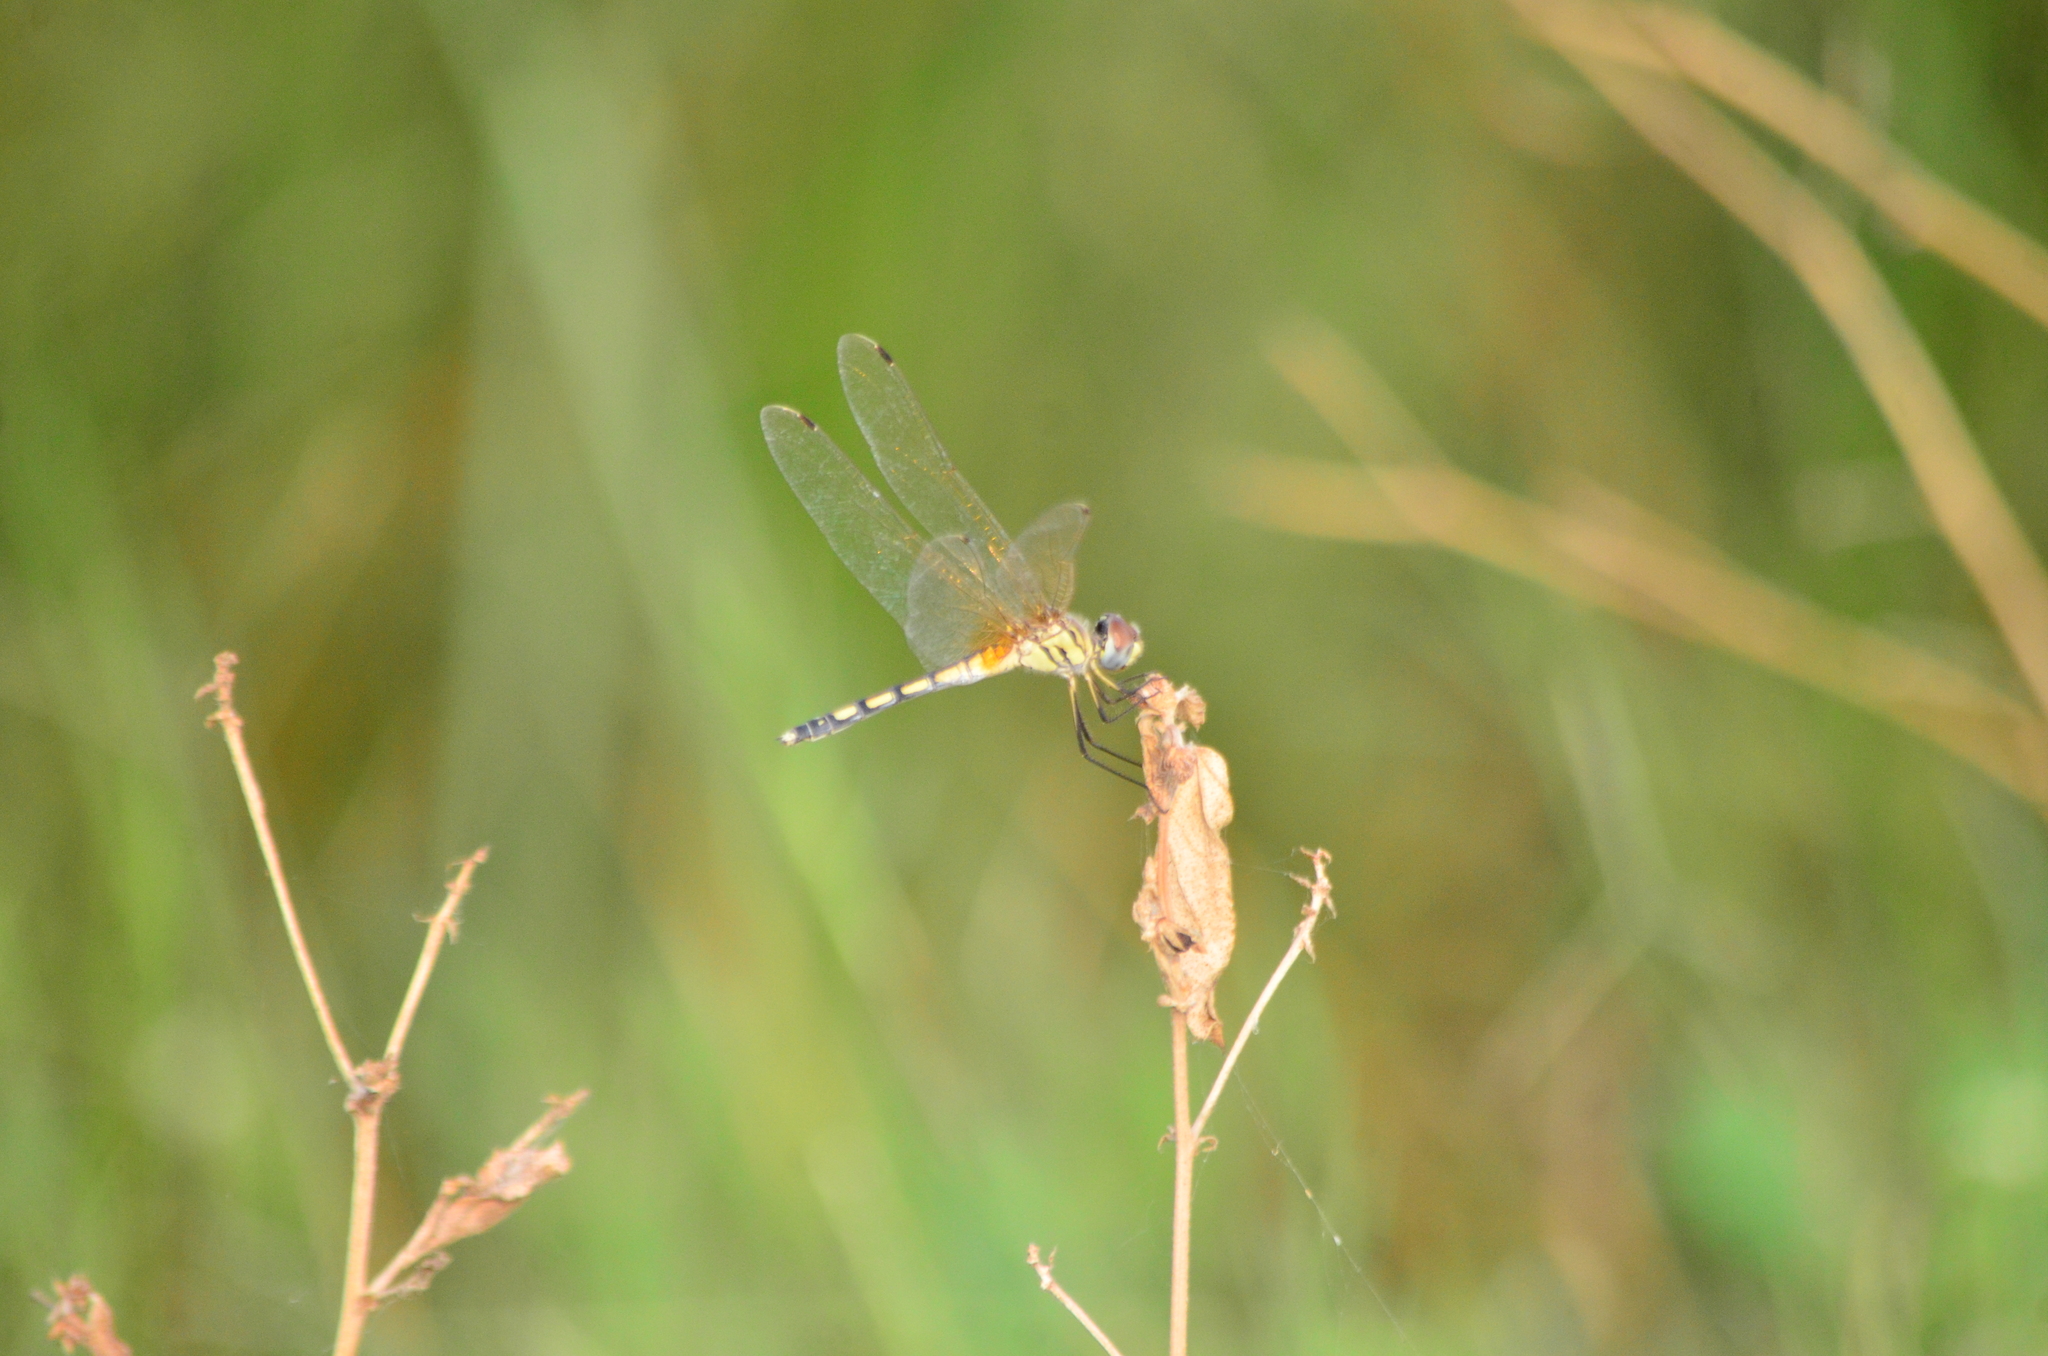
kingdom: Animalia
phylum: Arthropoda
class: Insecta
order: Odonata
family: Libellulidae
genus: Trithemis
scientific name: Trithemis pallidinervis
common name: Dancing dropwing
